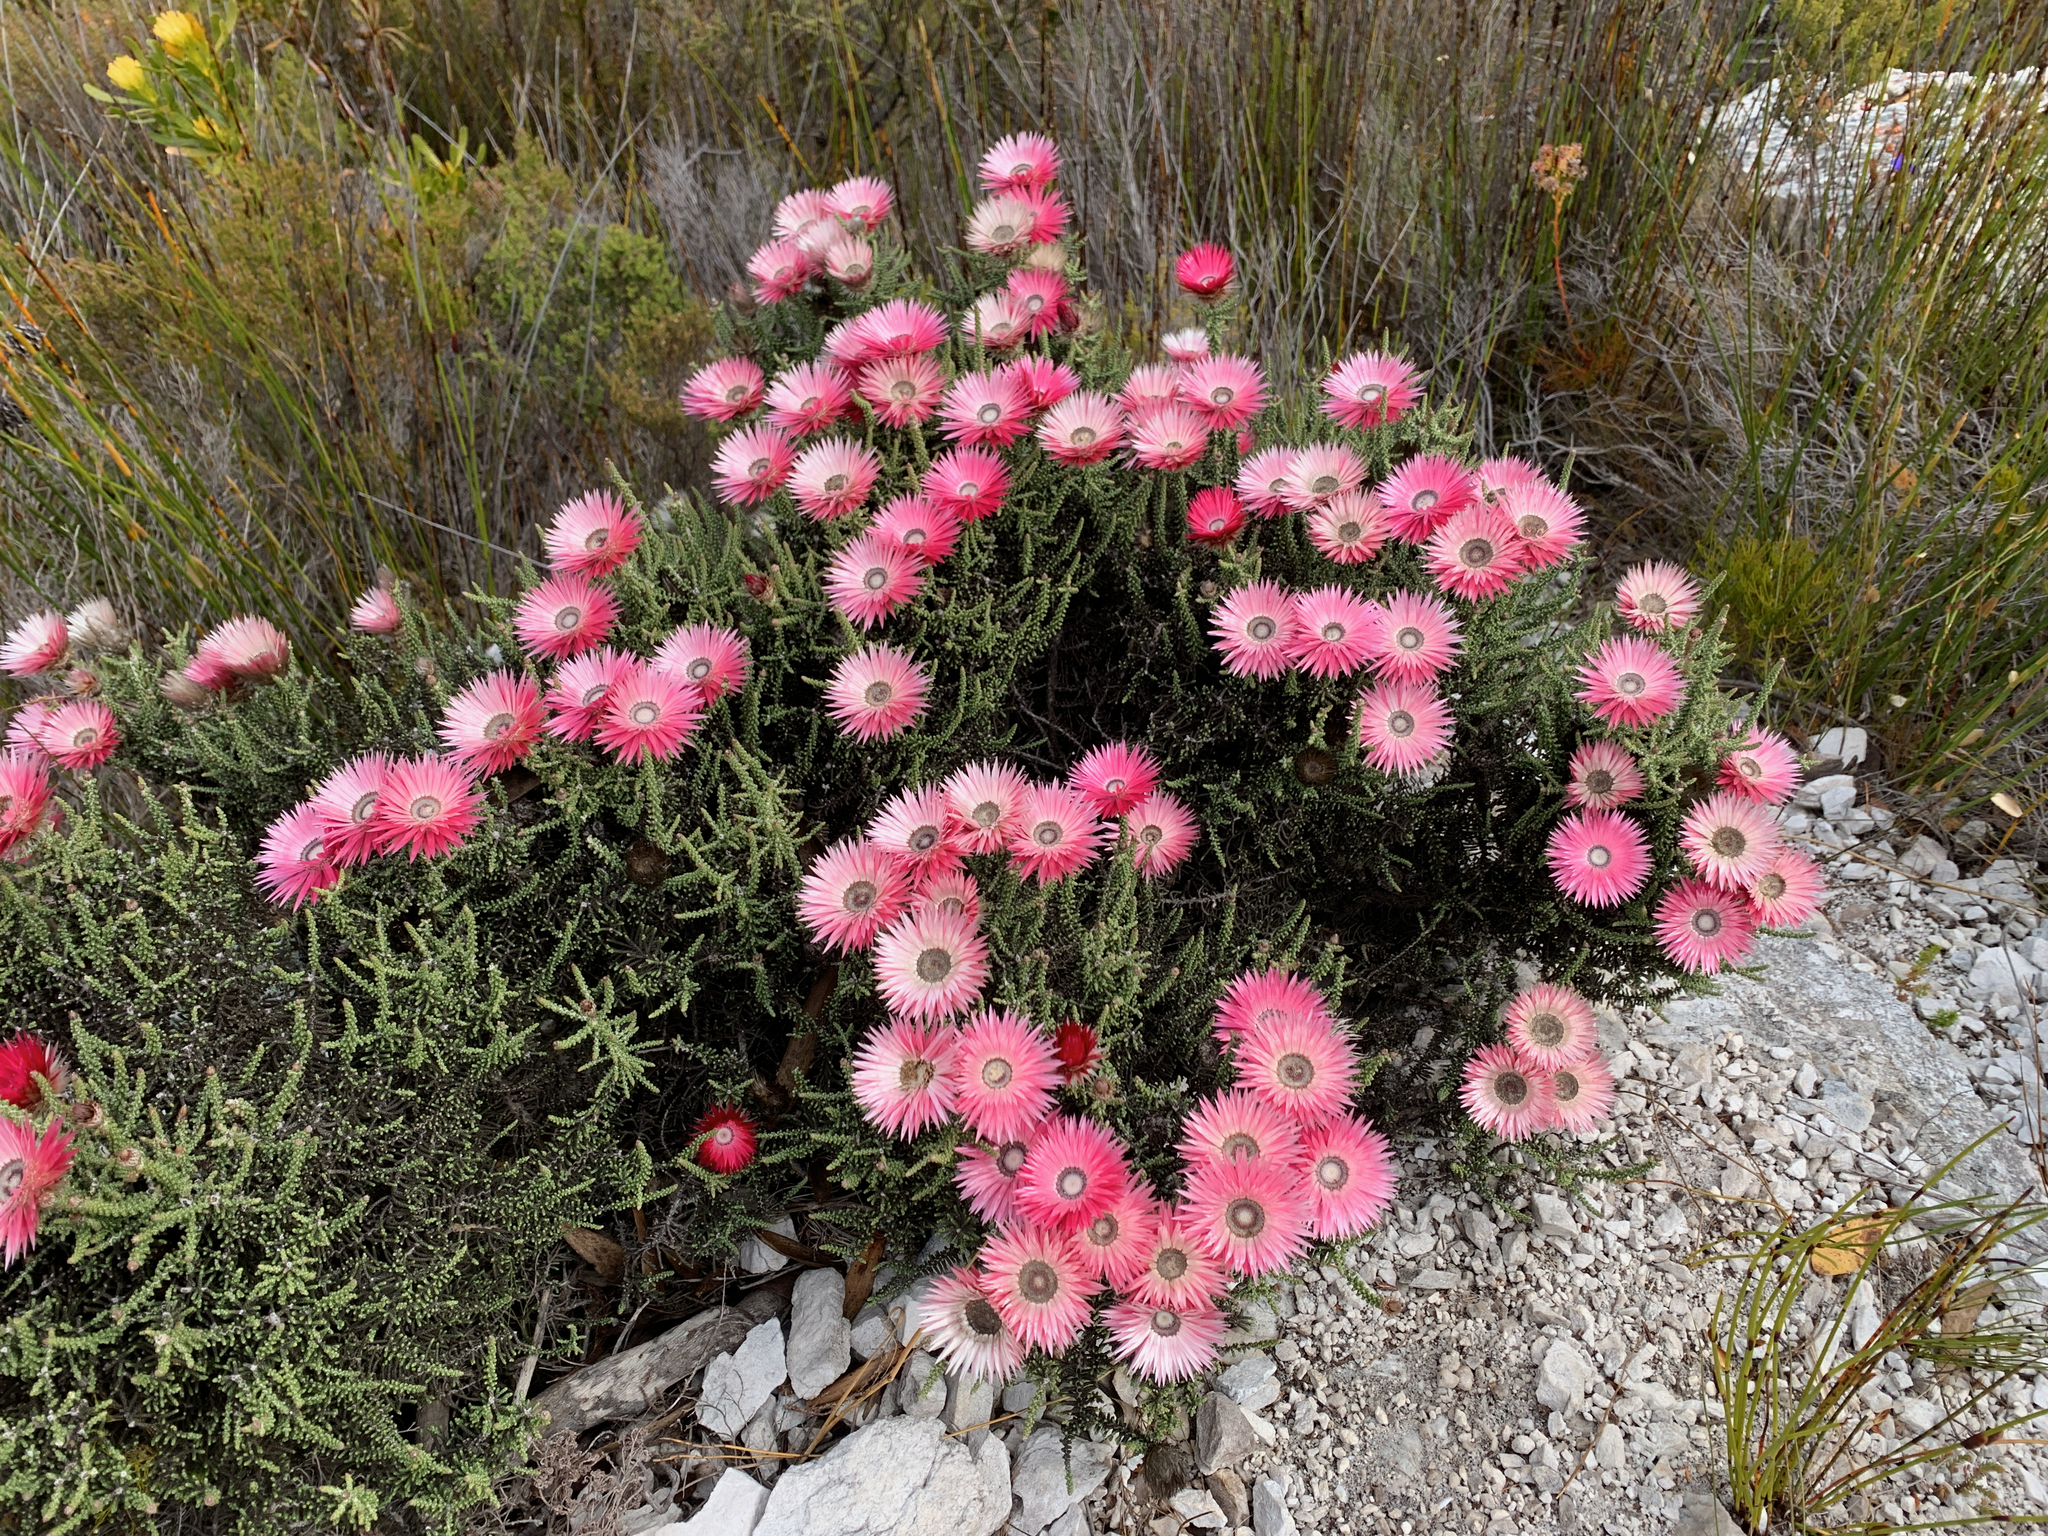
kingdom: Plantae
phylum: Tracheophyta
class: Magnoliopsida
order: Asterales
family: Asteraceae
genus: Phaenocoma
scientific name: Phaenocoma prolifera
